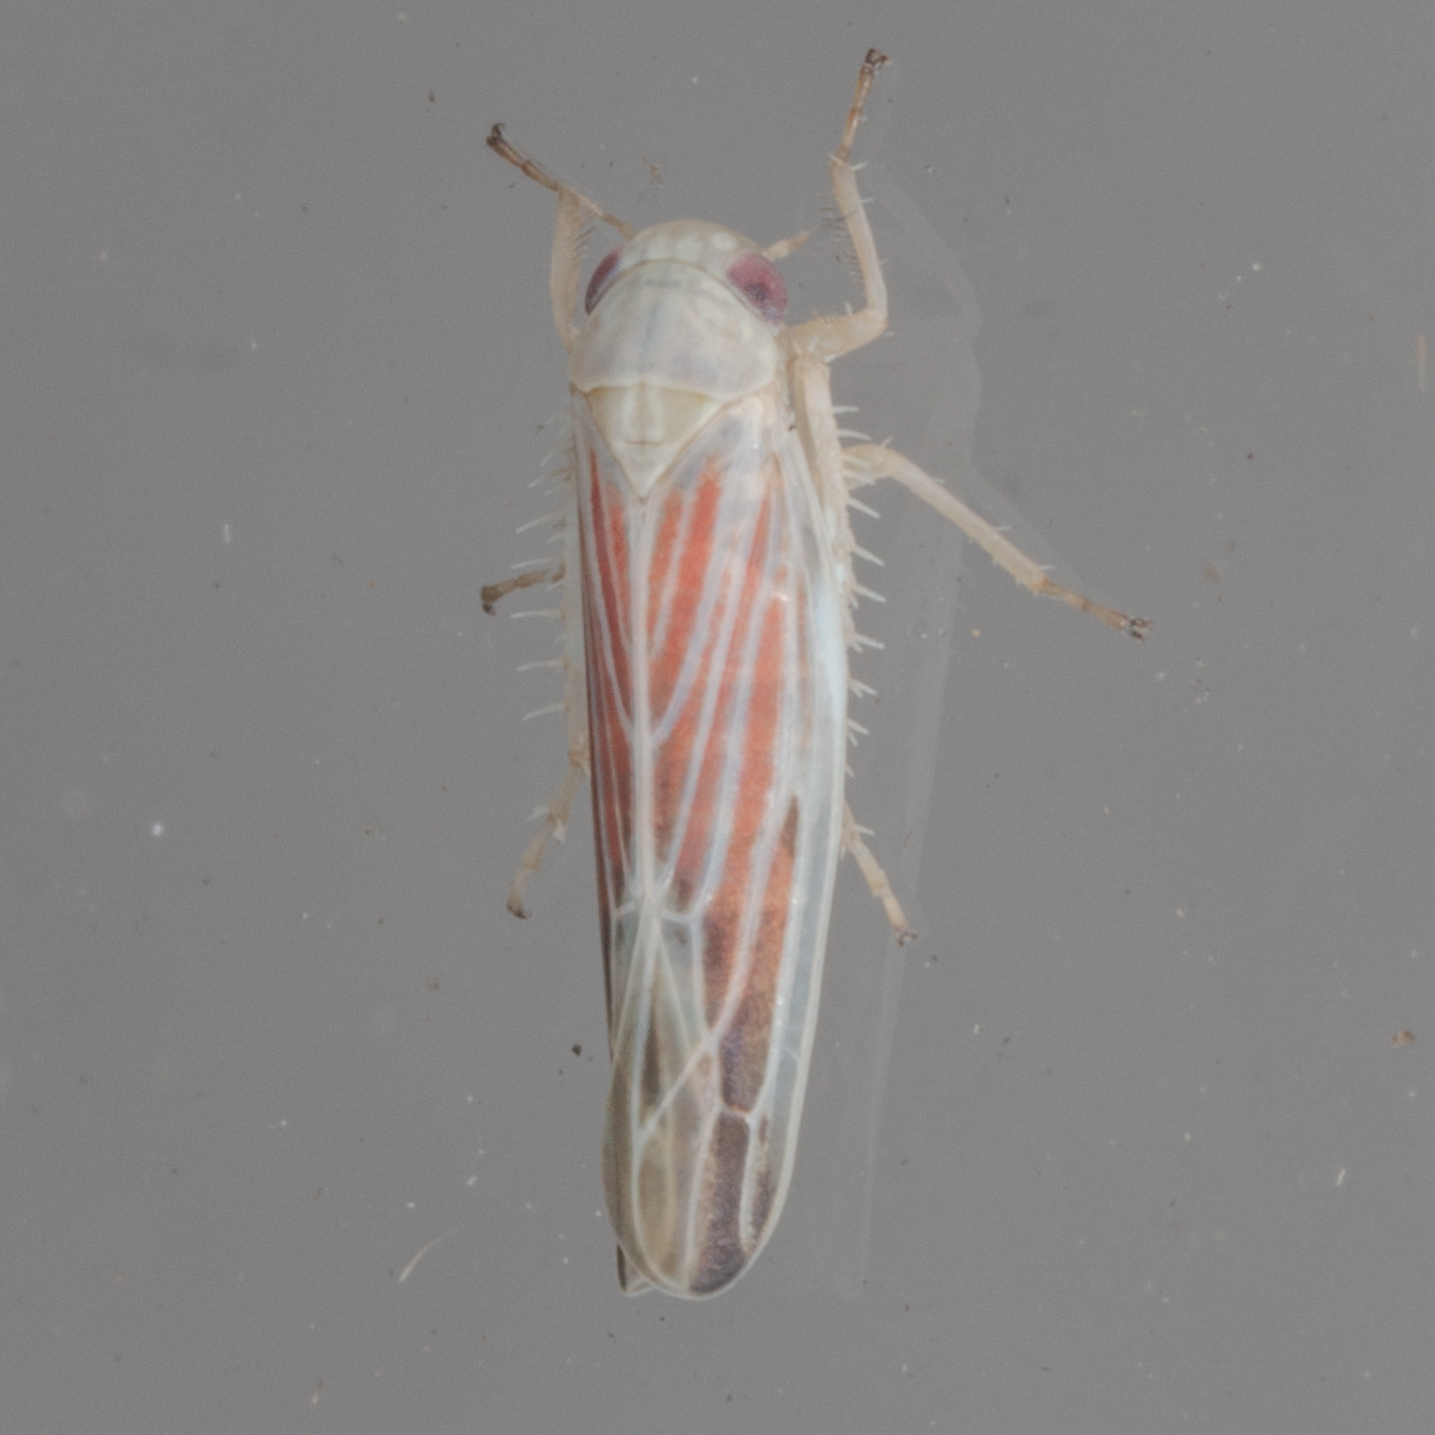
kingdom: Animalia
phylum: Arthropoda
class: Insecta
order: Hemiptera
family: Cicadellidae
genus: Balclutha
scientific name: Balclutha rubrostriata
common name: Red-streaked leafhopper
